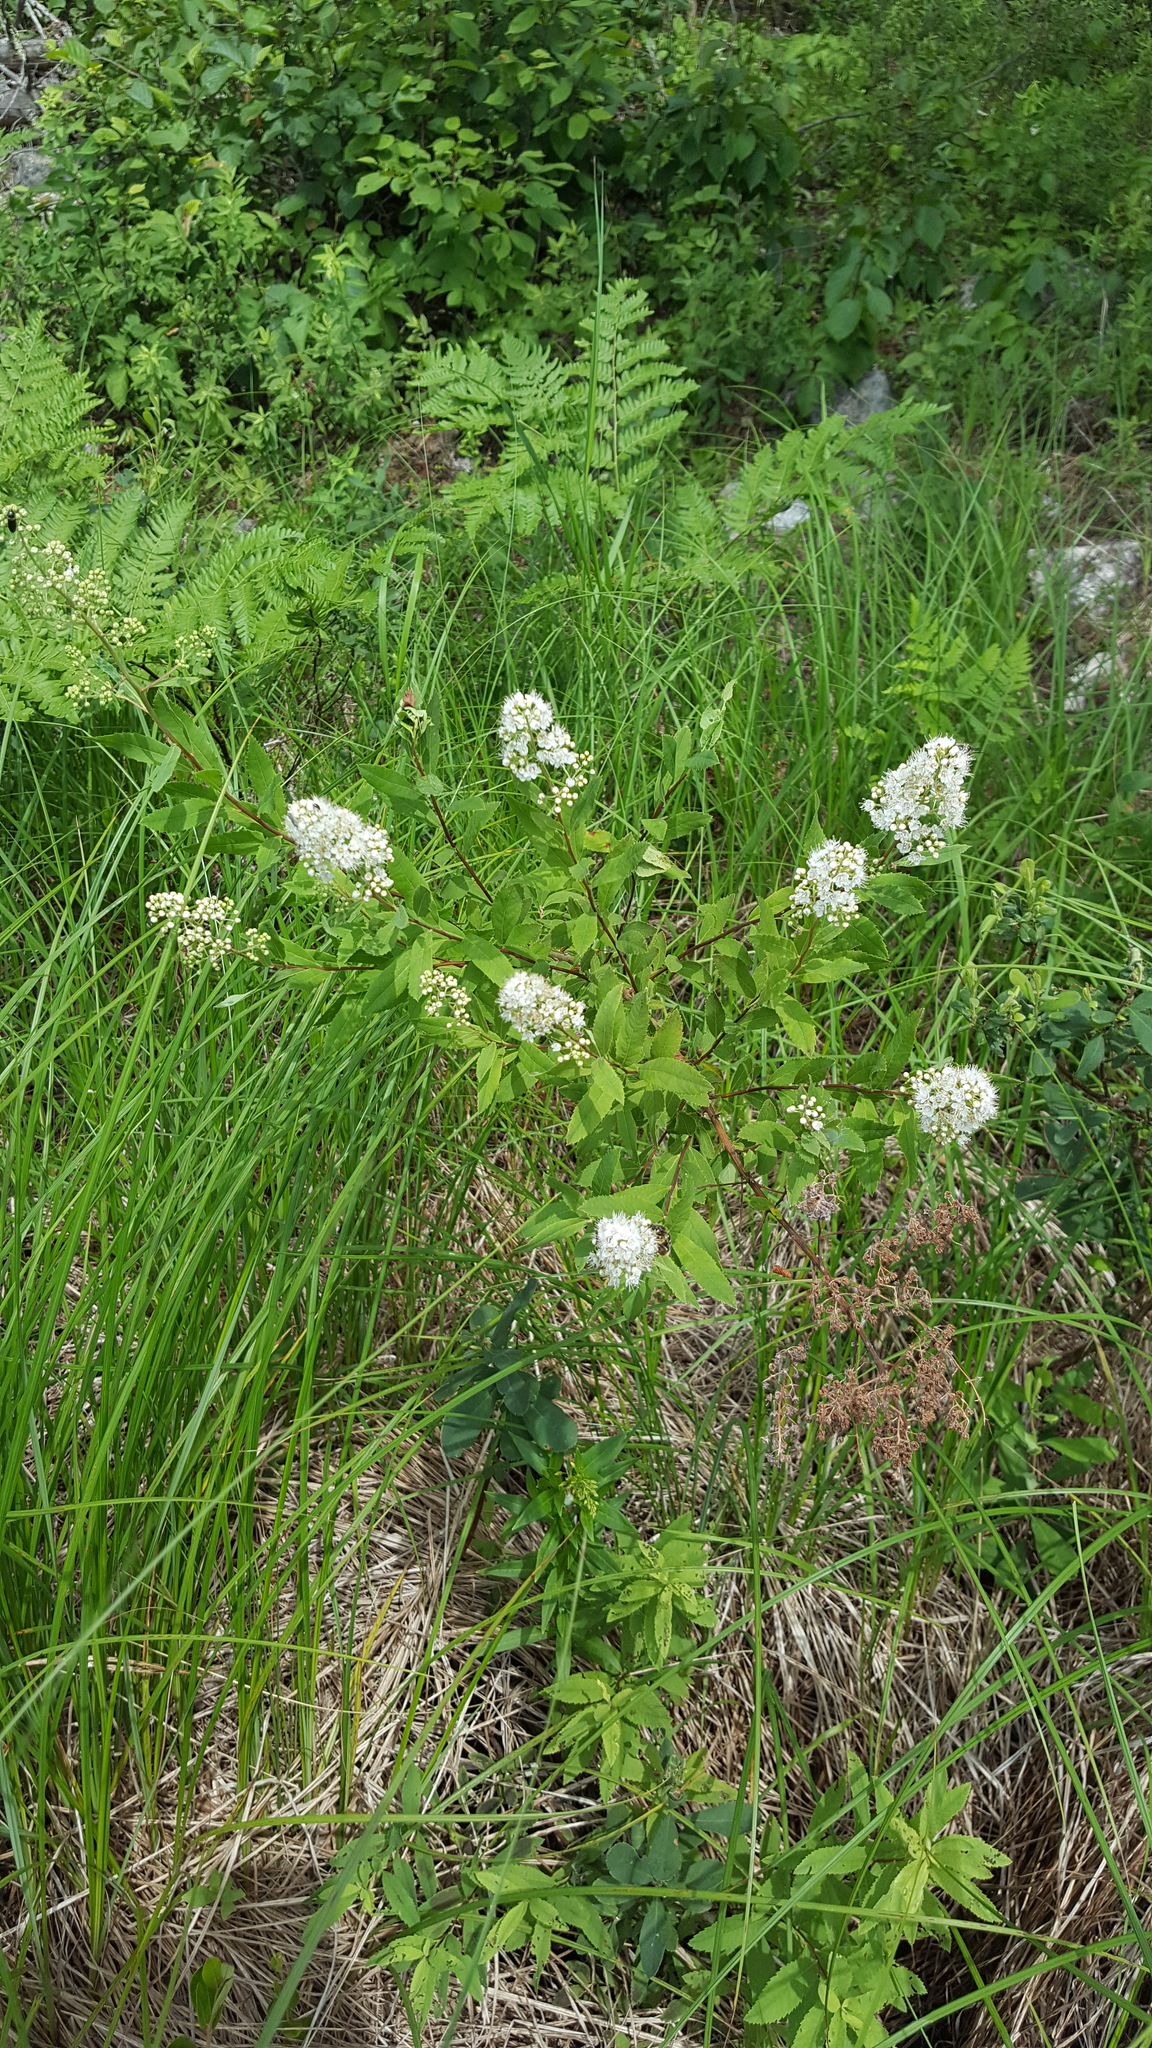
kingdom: Plantae
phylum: Tracheophyta
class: Magnoliopsida
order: Rosales
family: Rosaceae
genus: Spiraea
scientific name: Spiraea alba
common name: Pale bridewort
